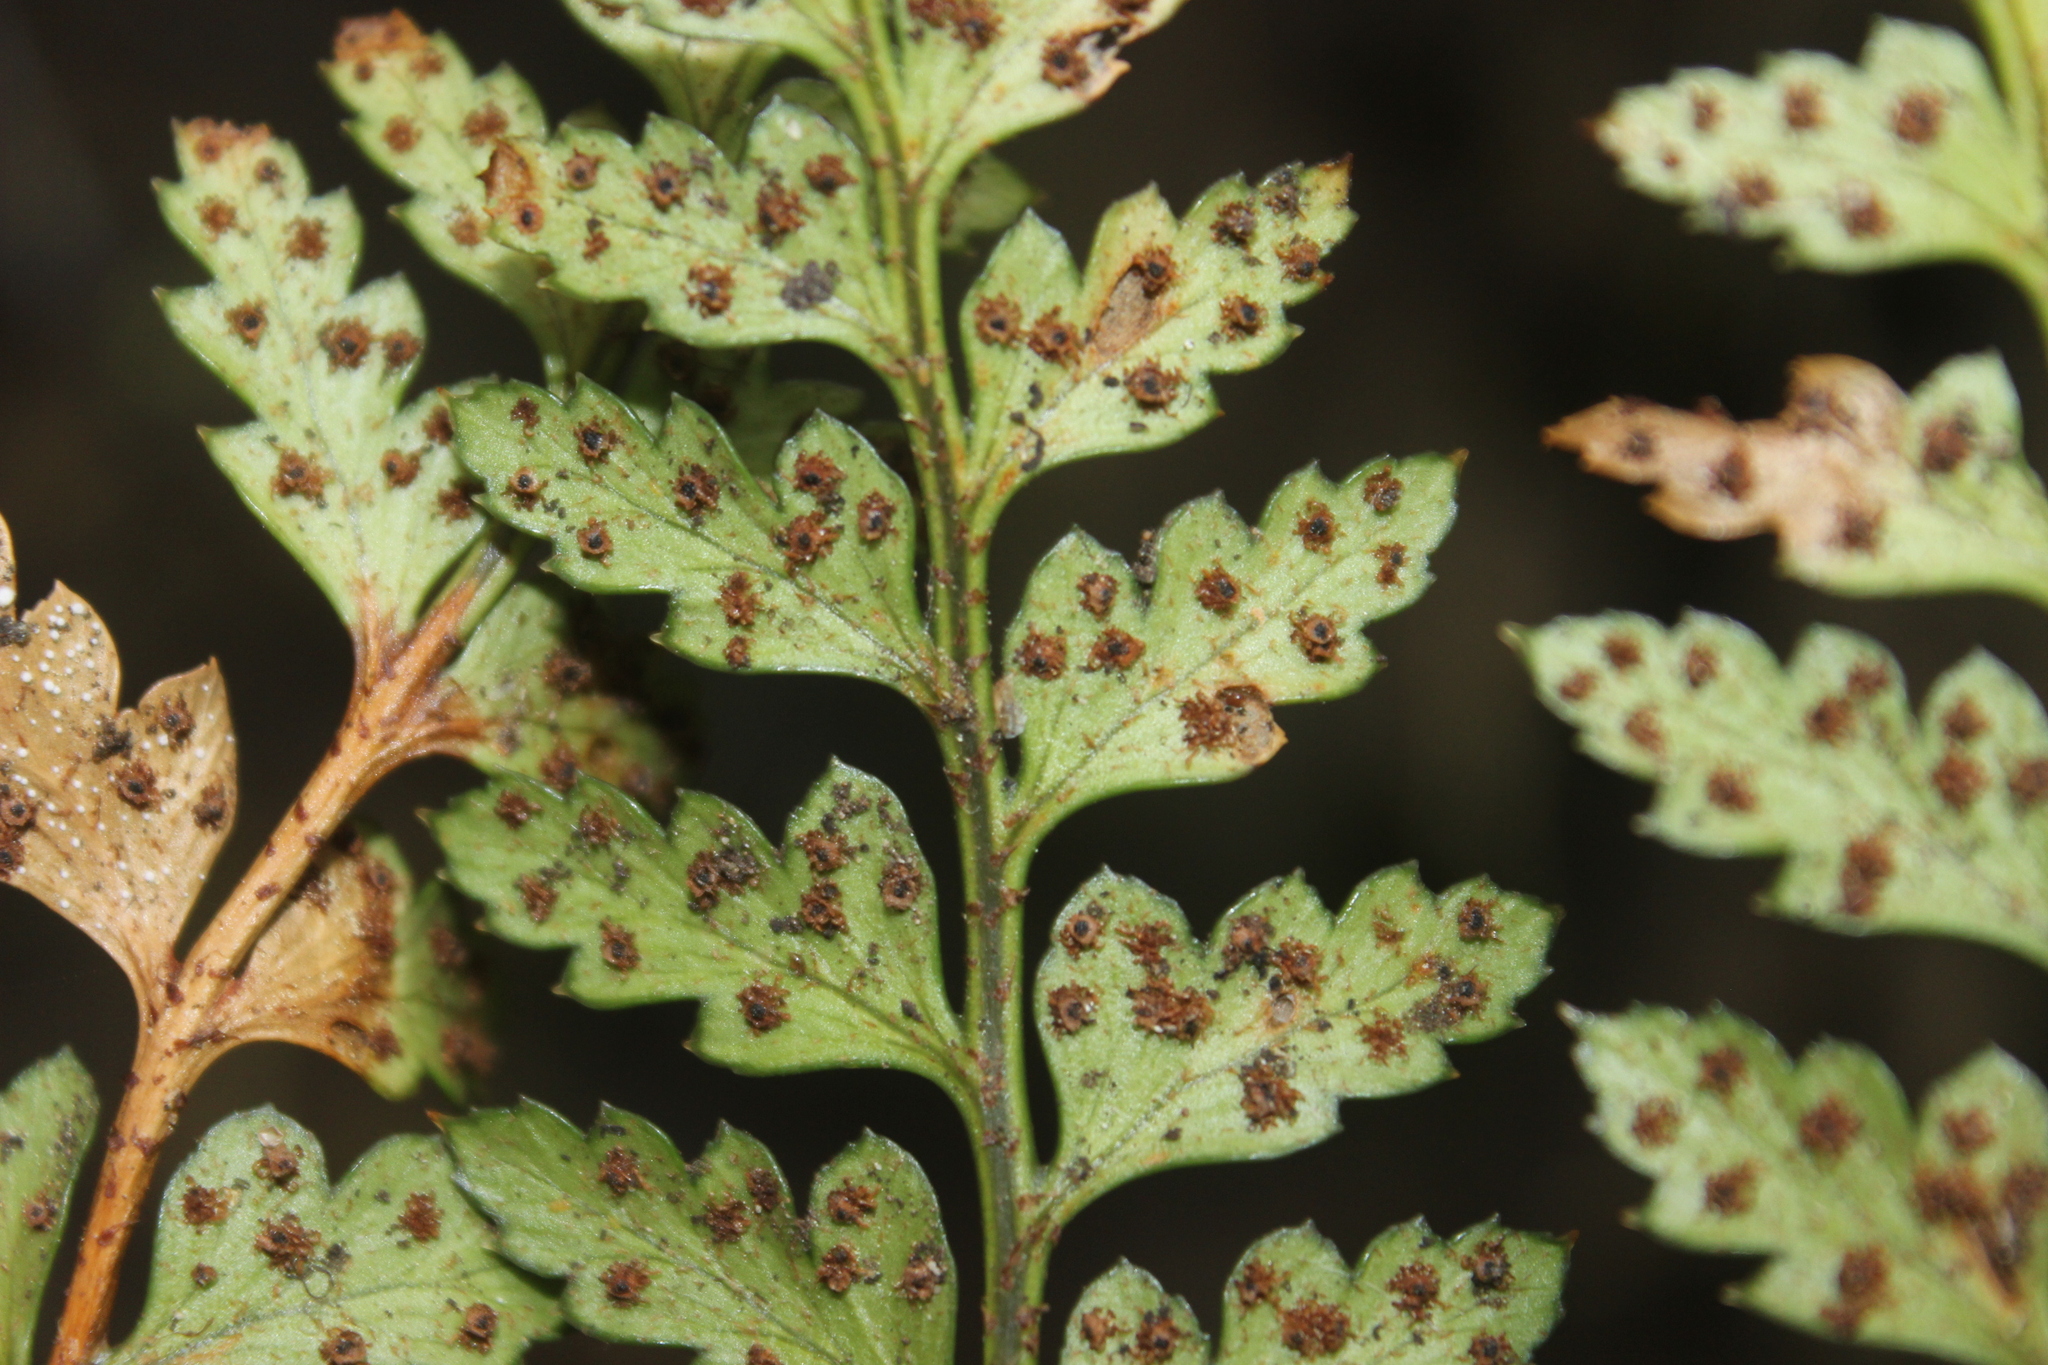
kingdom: Plantae
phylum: Tracheophyta
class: Polypodiopsida
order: Polypodiales
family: Dryopteridaceae
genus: Polystichum
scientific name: Polystichum oculatum
